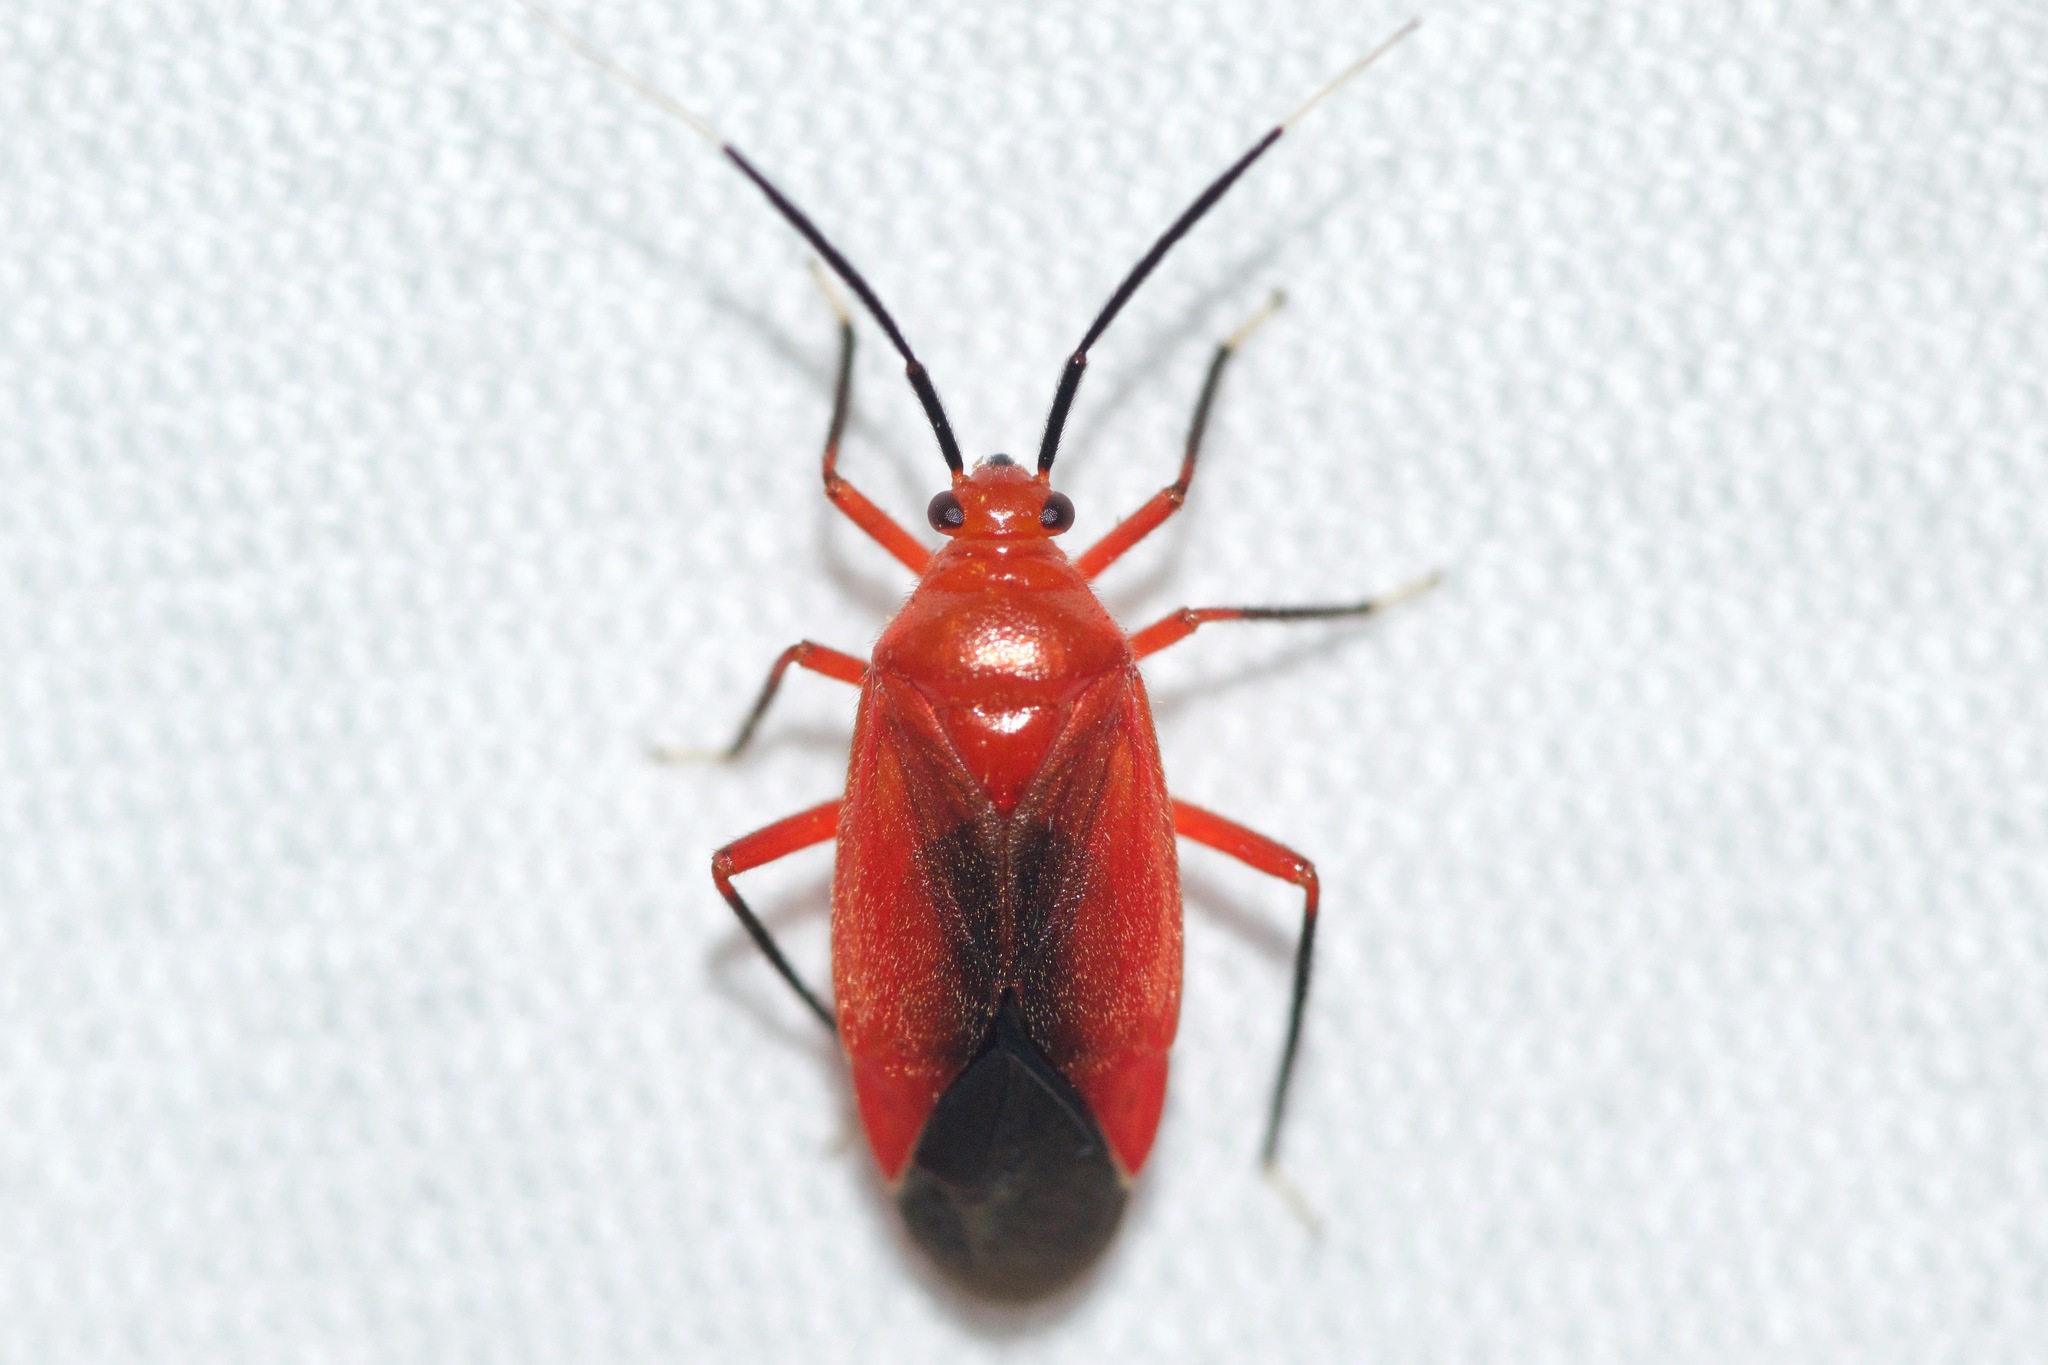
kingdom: Animalia
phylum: Arthropoda
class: Insecta
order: Hemiptera
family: Miridae
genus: Coccobaphes
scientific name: Coccobaphes frontifer
